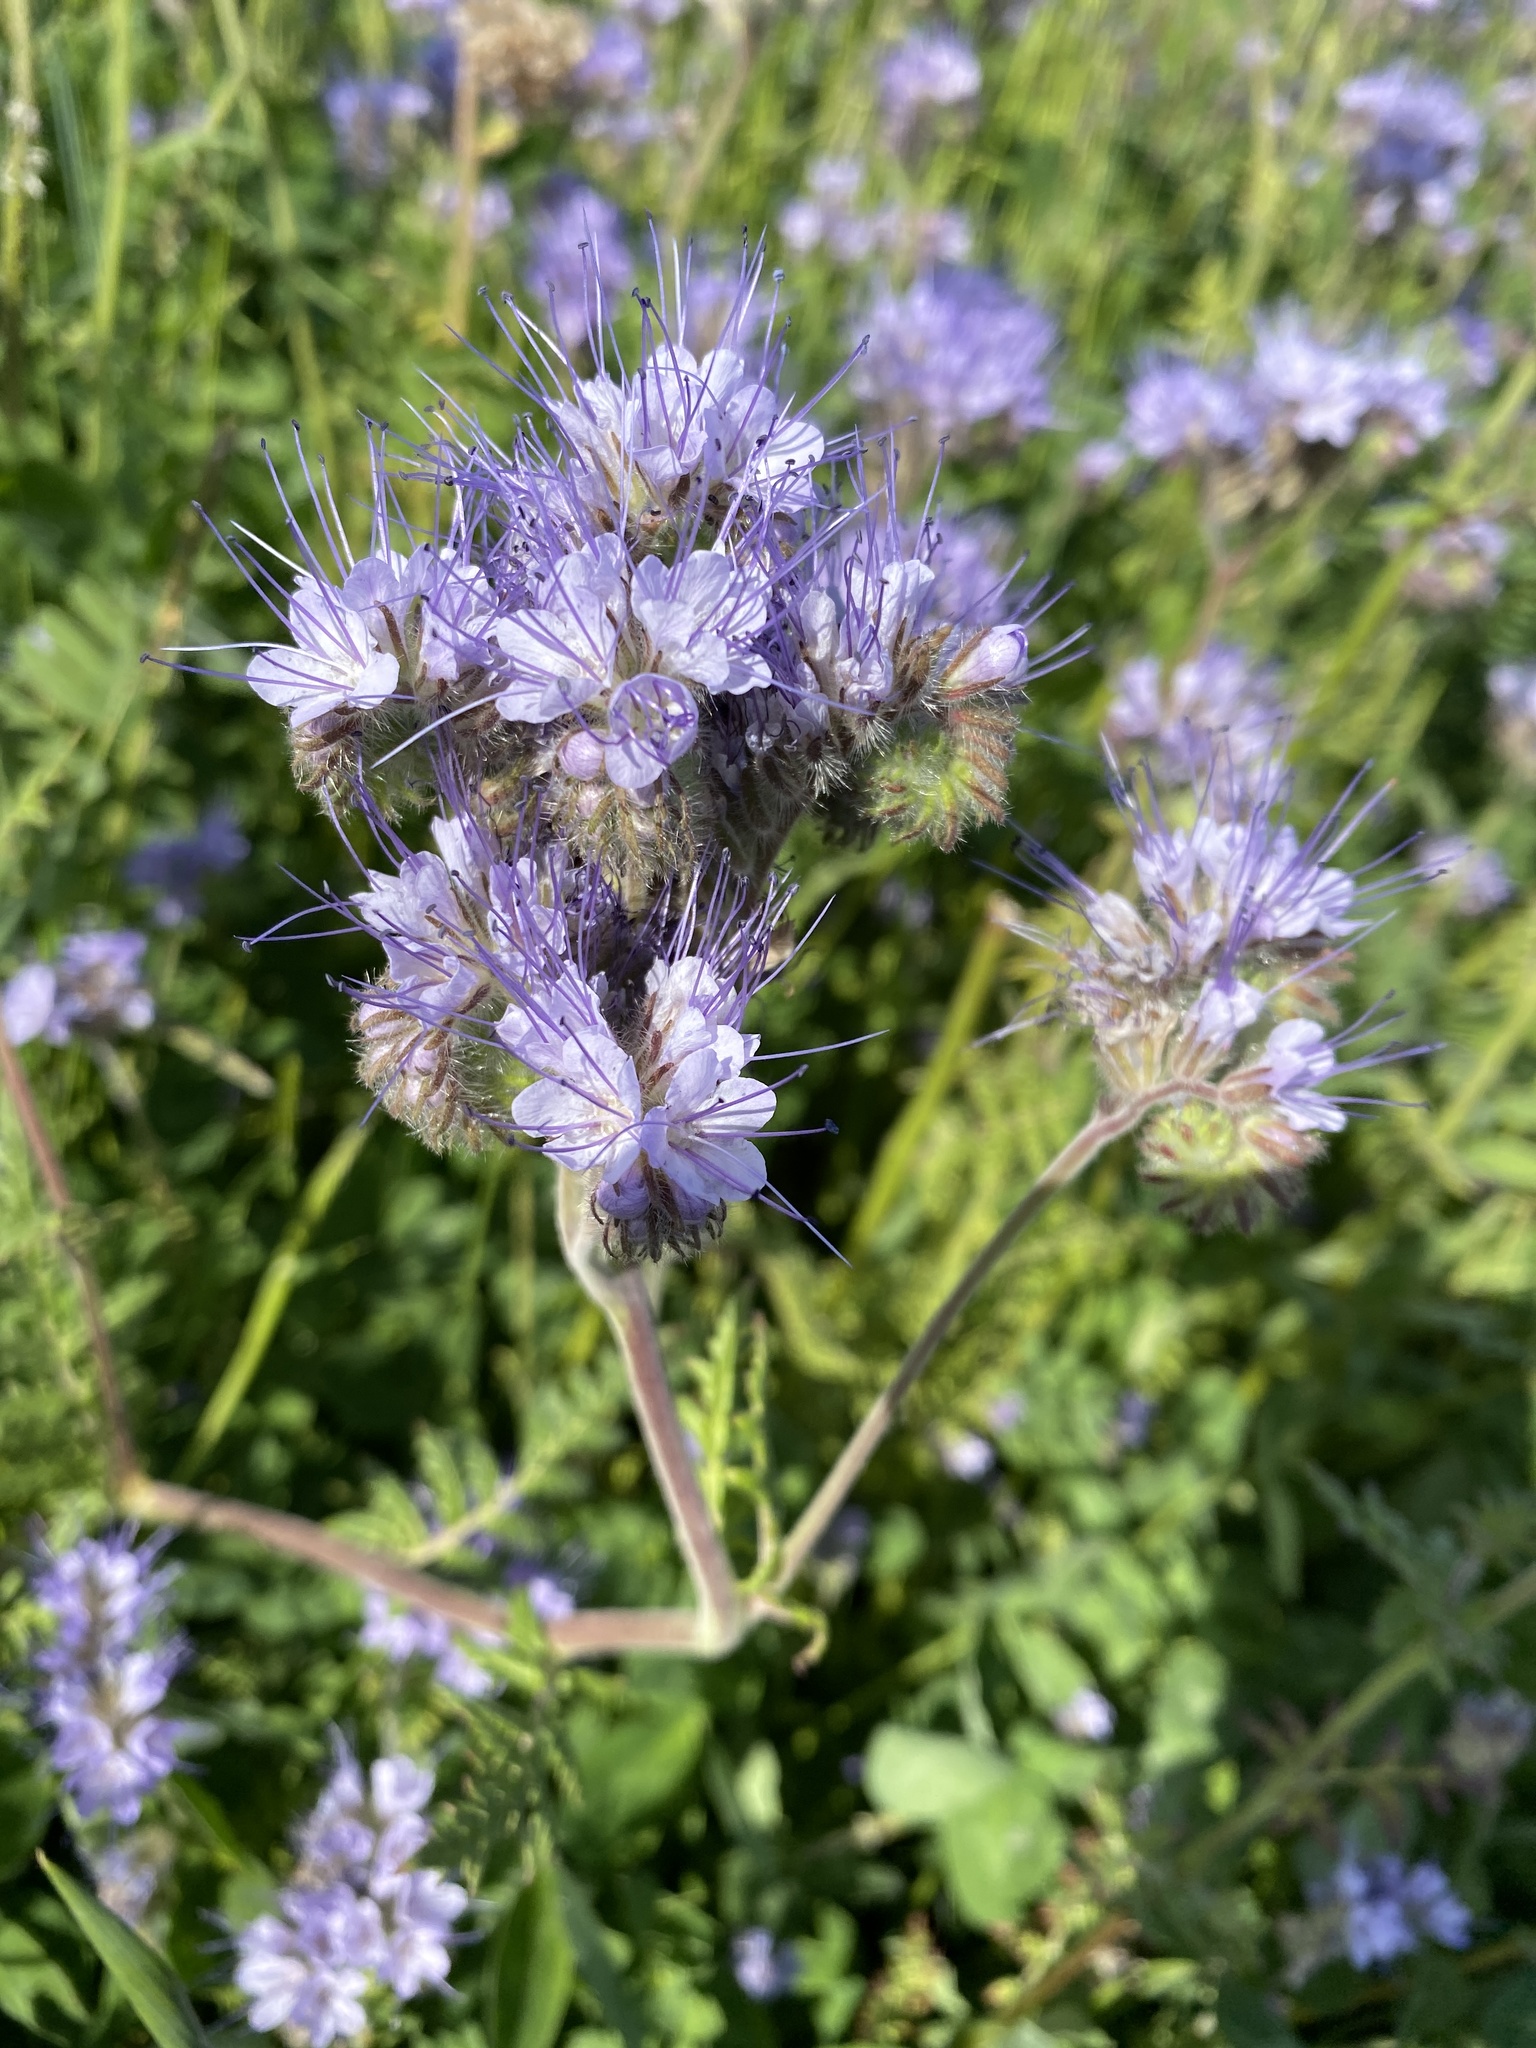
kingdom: Plantae
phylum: Tracheophyta
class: Magnoliopsida
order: Boraginales
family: Hydrophyllaceae
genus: Phacelia
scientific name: Phacelia tanacetifolia
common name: Phacelia
